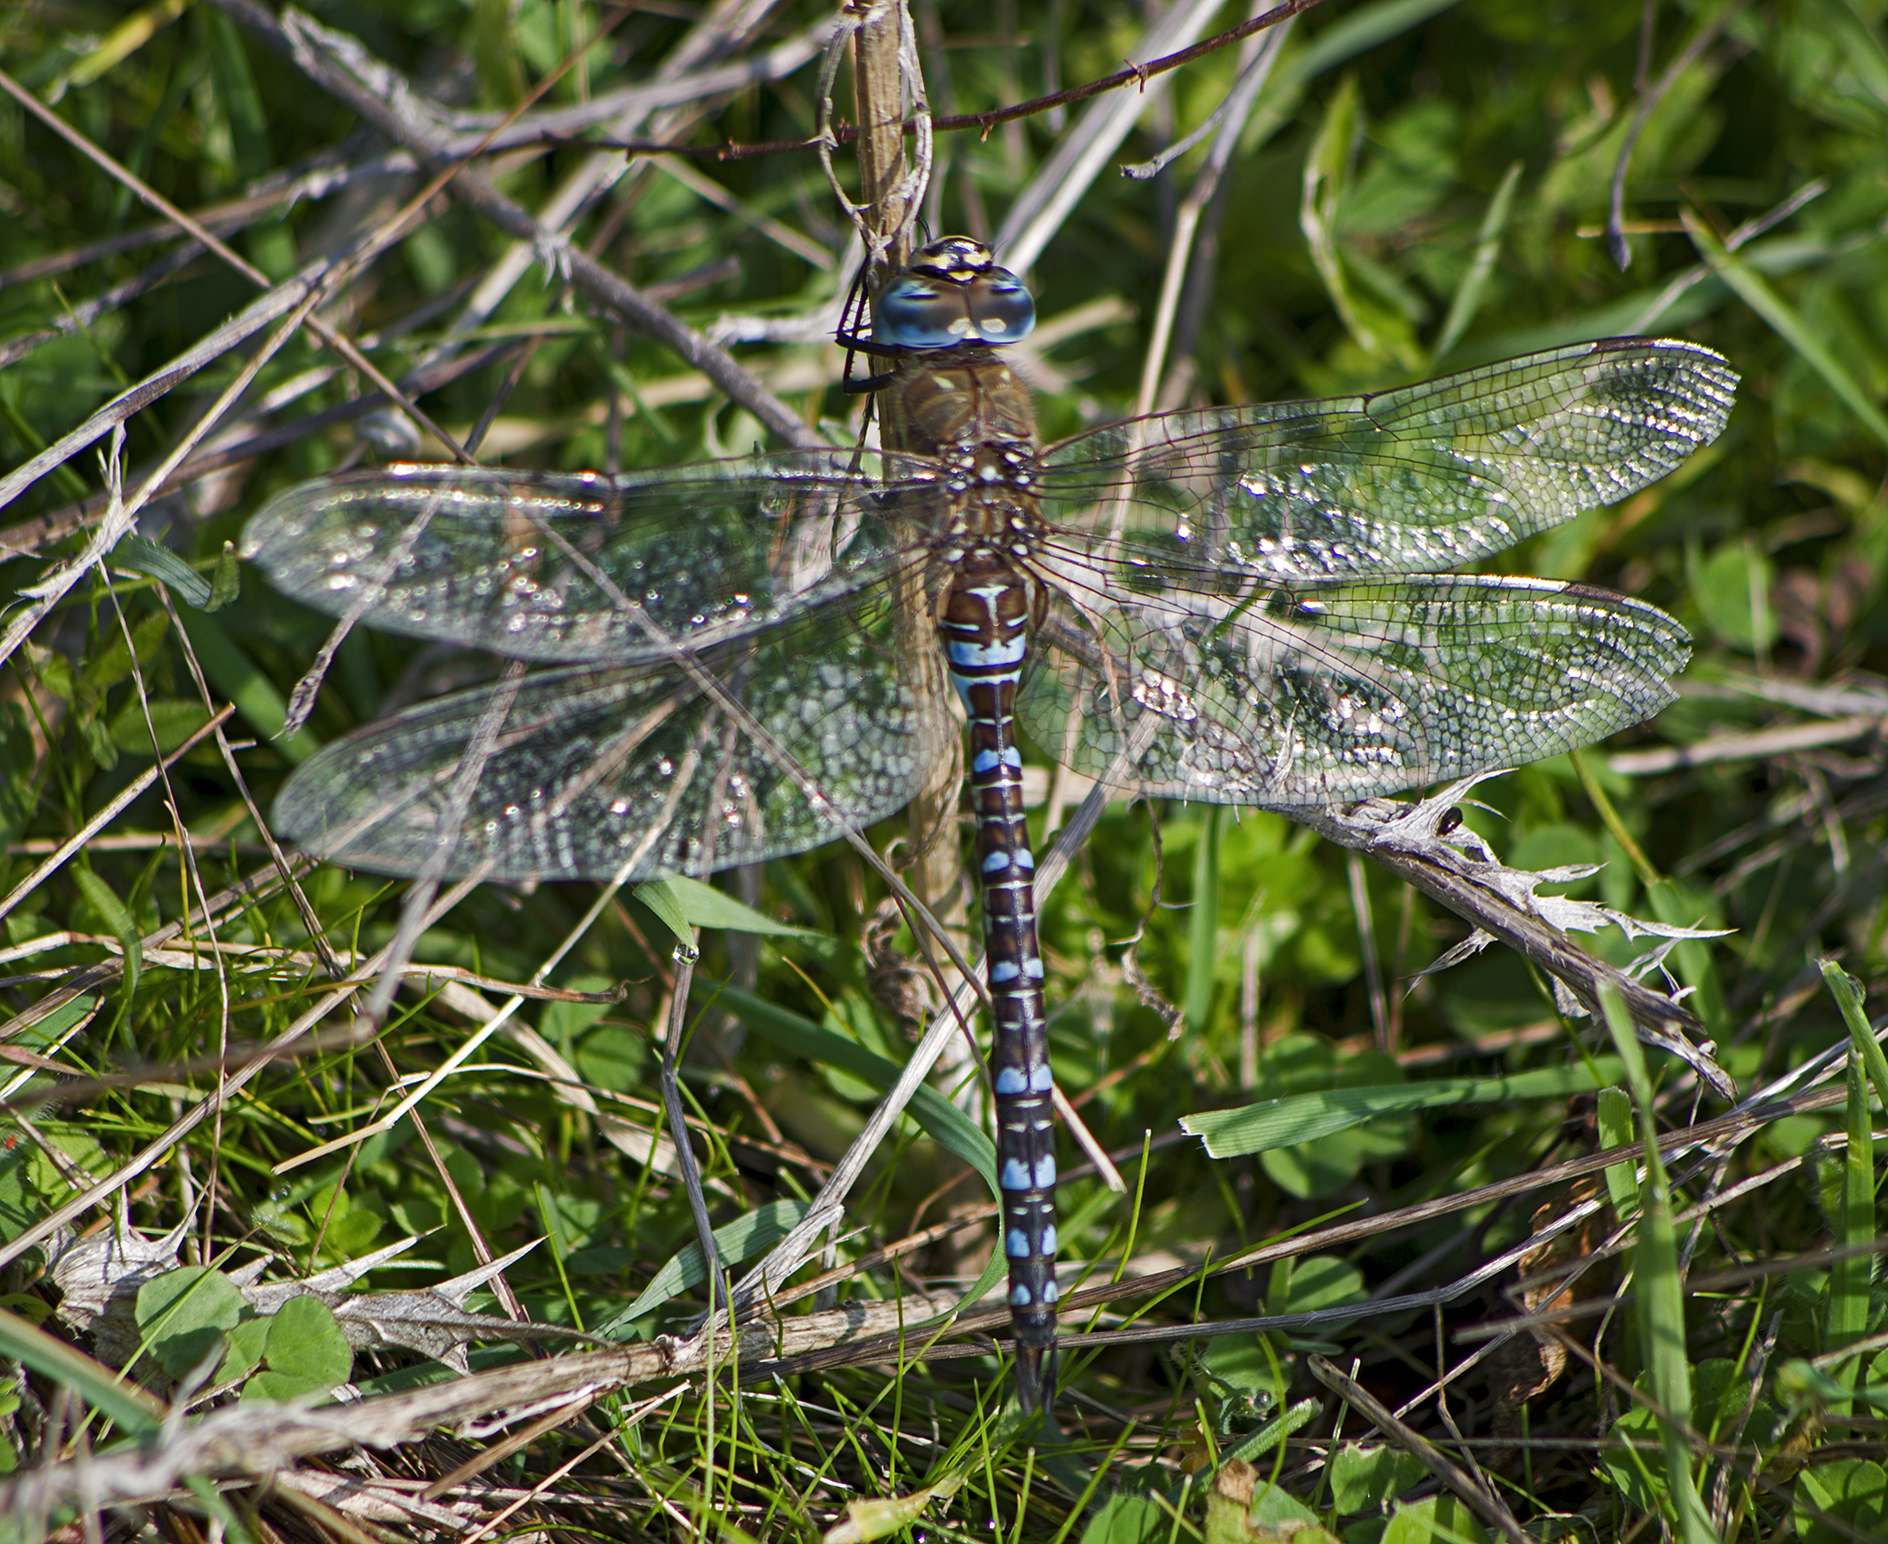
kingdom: Animalia
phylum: Arthropoda
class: Insecta
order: Odonata
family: Aeshnidae
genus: Aeshna
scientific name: Aeshna mixta
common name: Migrant hawker
